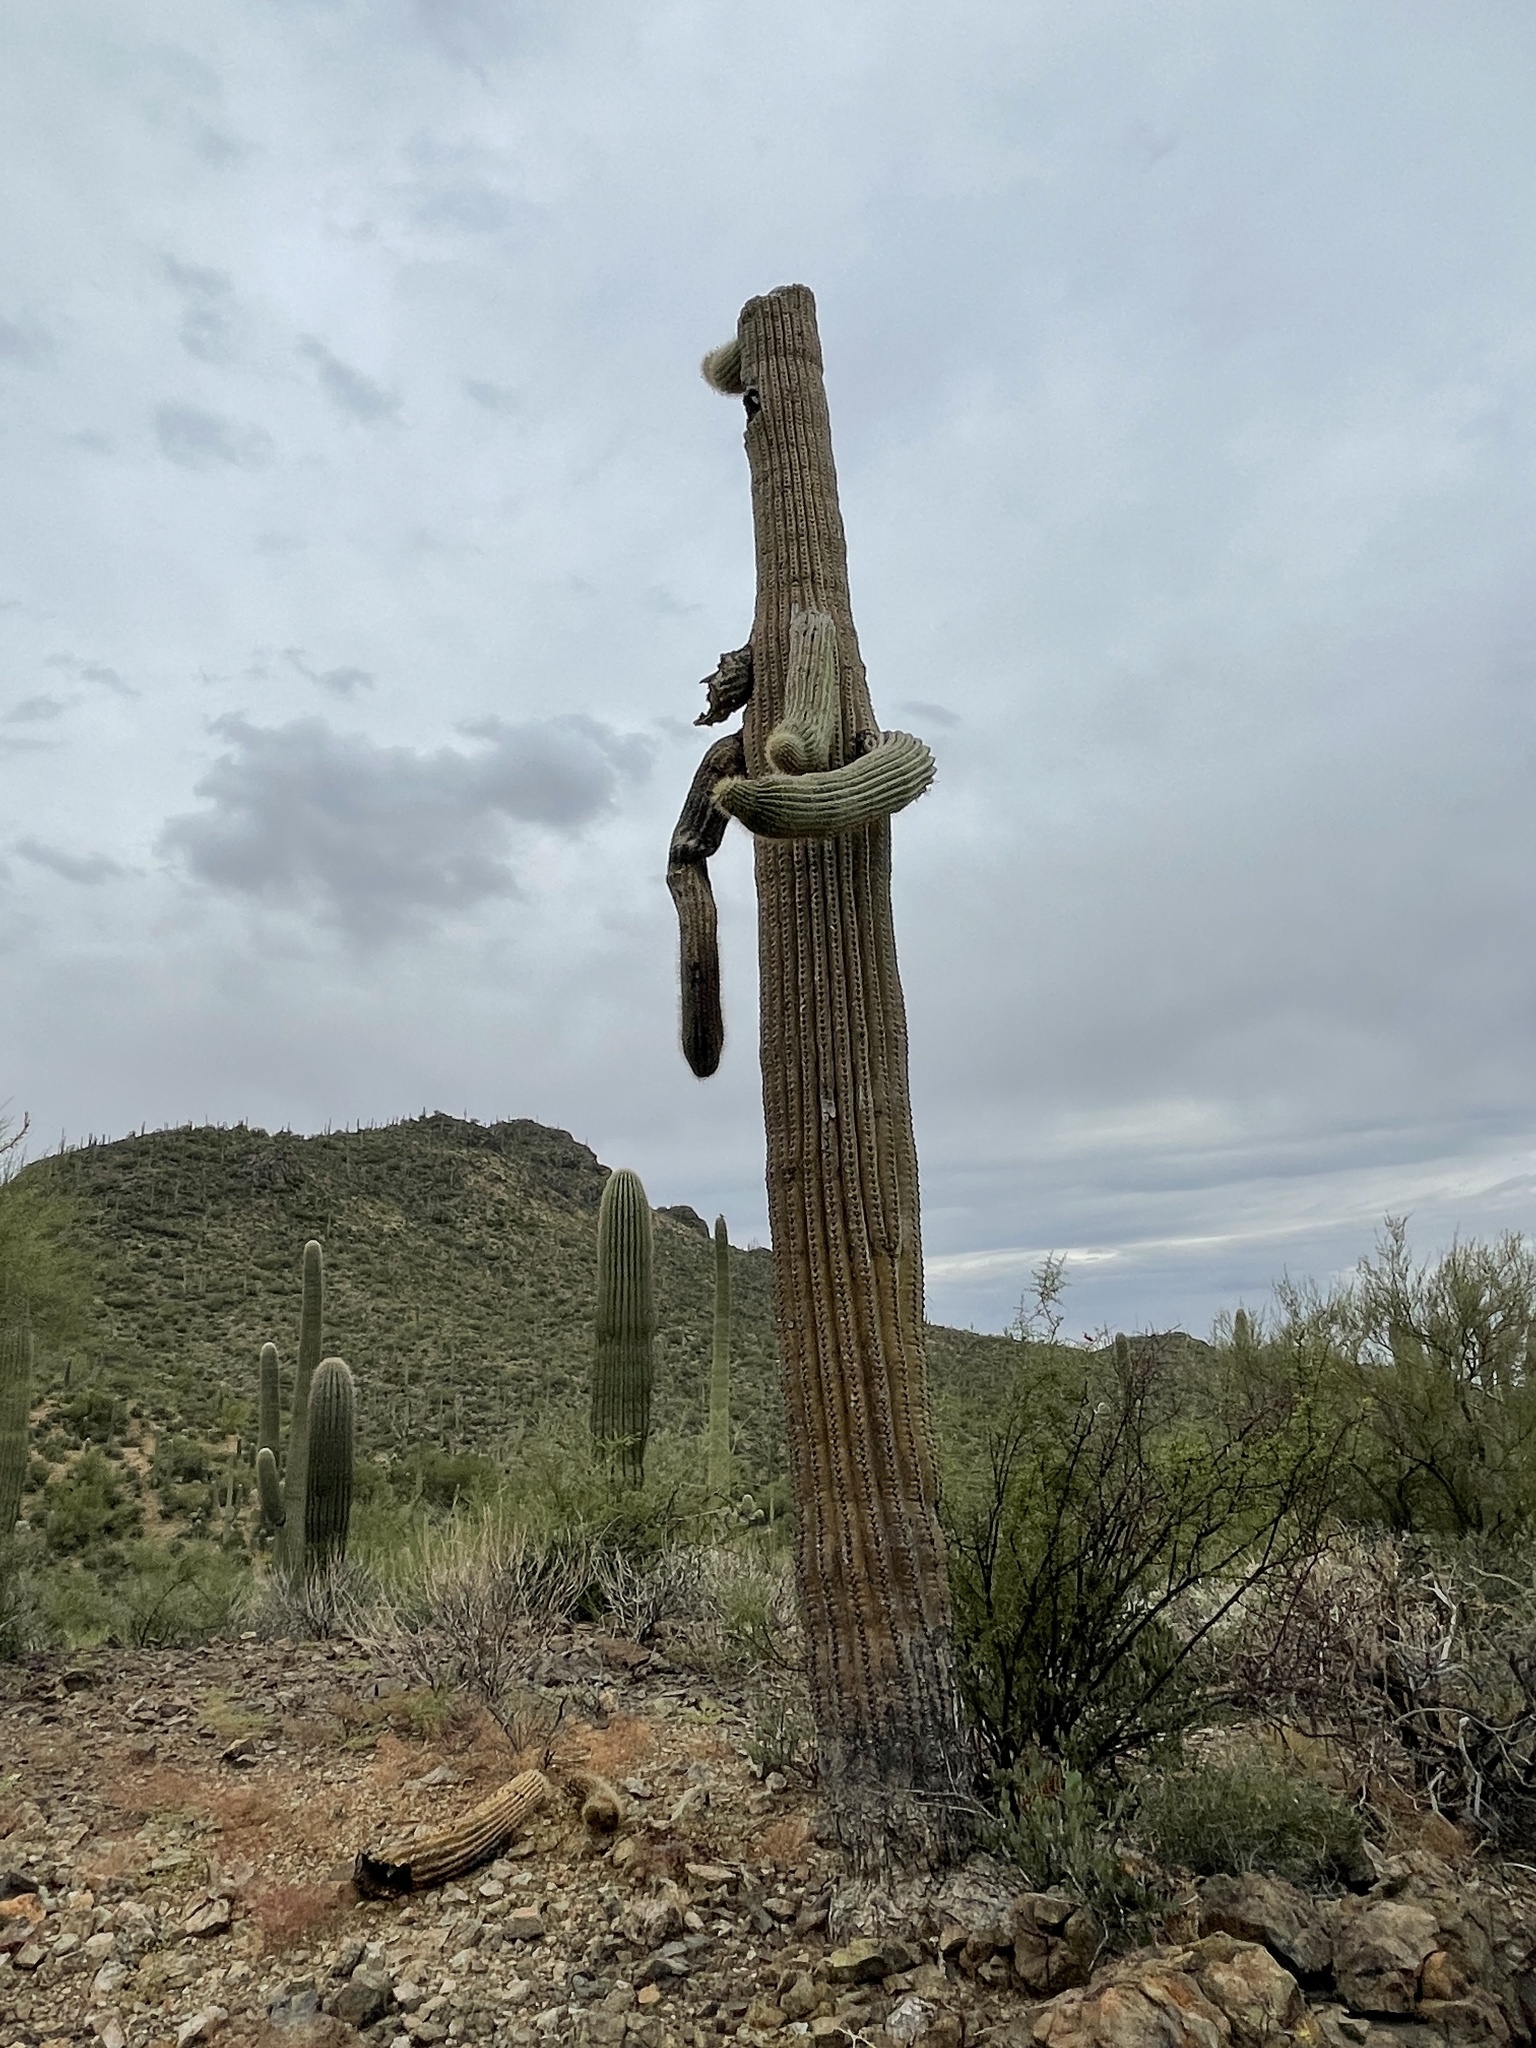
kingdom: Plantae
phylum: Tracheophyta
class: Magnoliopsida
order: Caryophyllales
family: Cactaceae
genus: Carnegiea
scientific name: Carnegiea gigantea
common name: Saguaro
